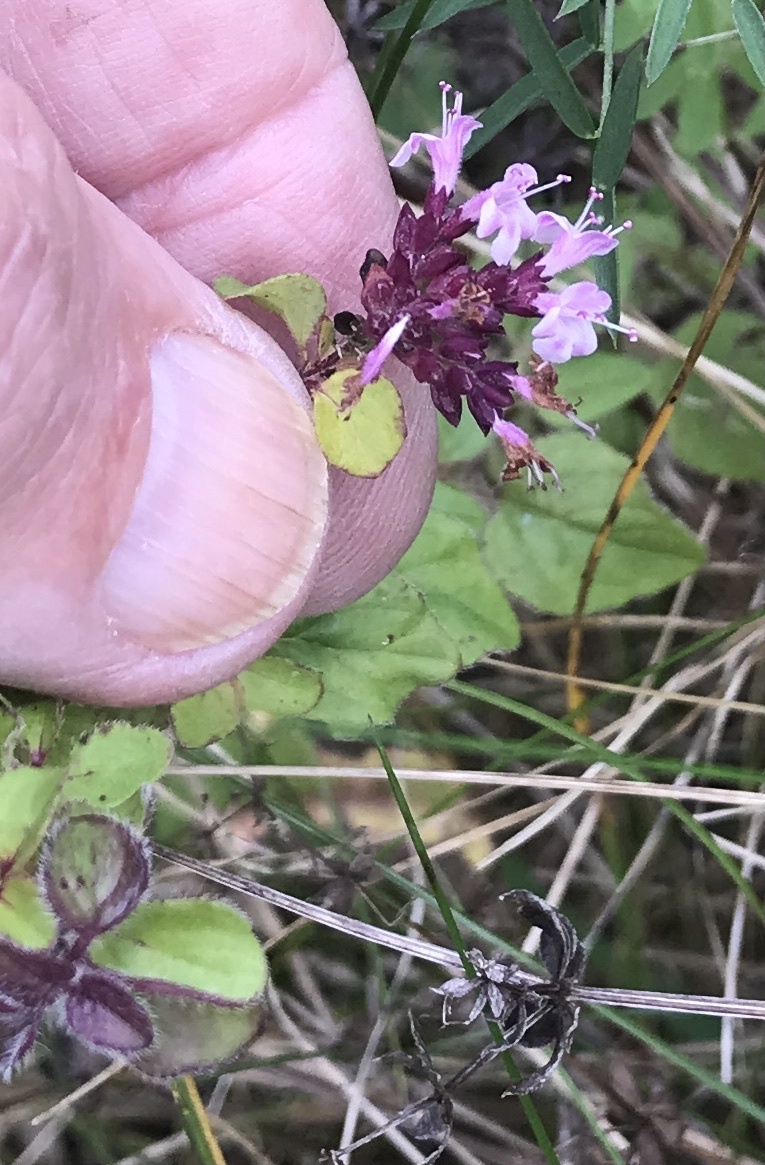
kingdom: Plantae
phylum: Tracheophyta
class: Magnoliopsida
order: Lamiales
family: Lamiaceae
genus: Origanum
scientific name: Origanum vulgare
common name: Wild marjoram
